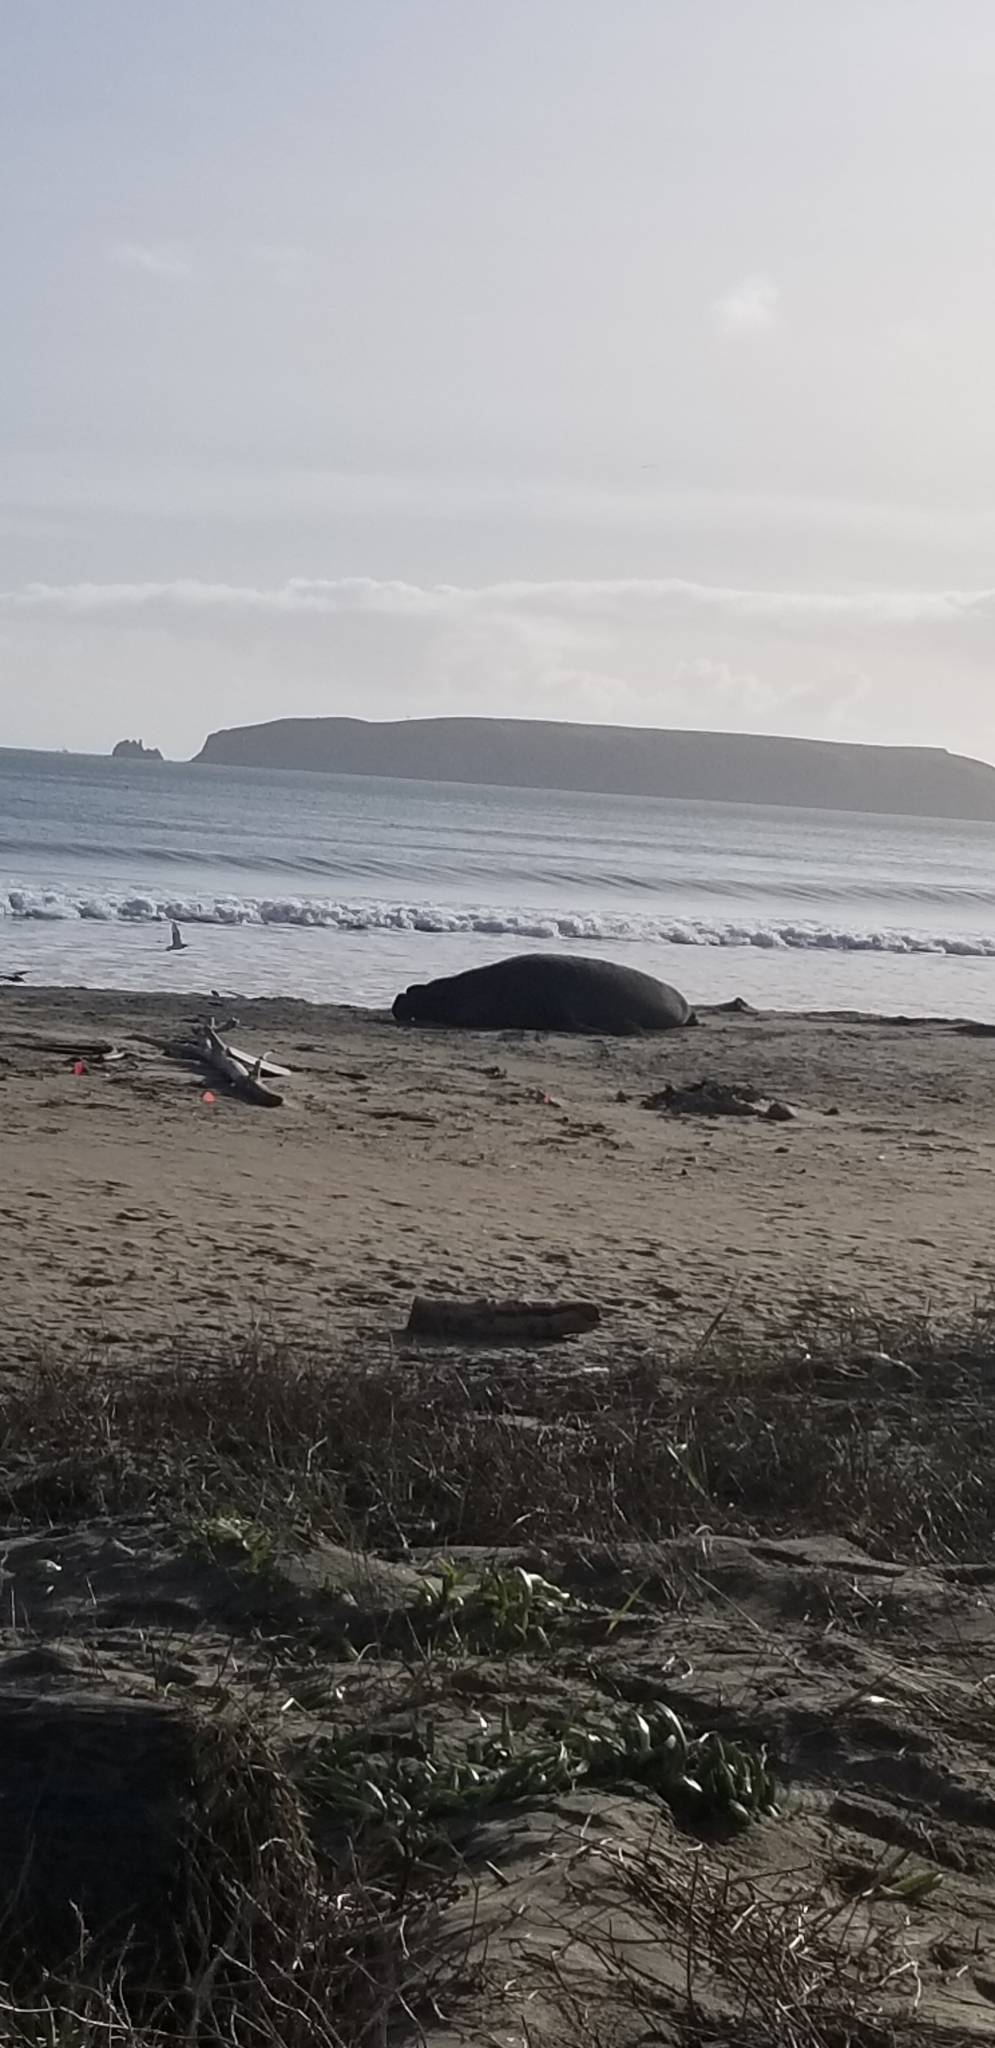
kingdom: Animalia
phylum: Chordata
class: Mammalia
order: Carnivora
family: Phocidae
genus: Mirounga
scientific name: Mirounga angustirostris
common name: Northern elephant seal
